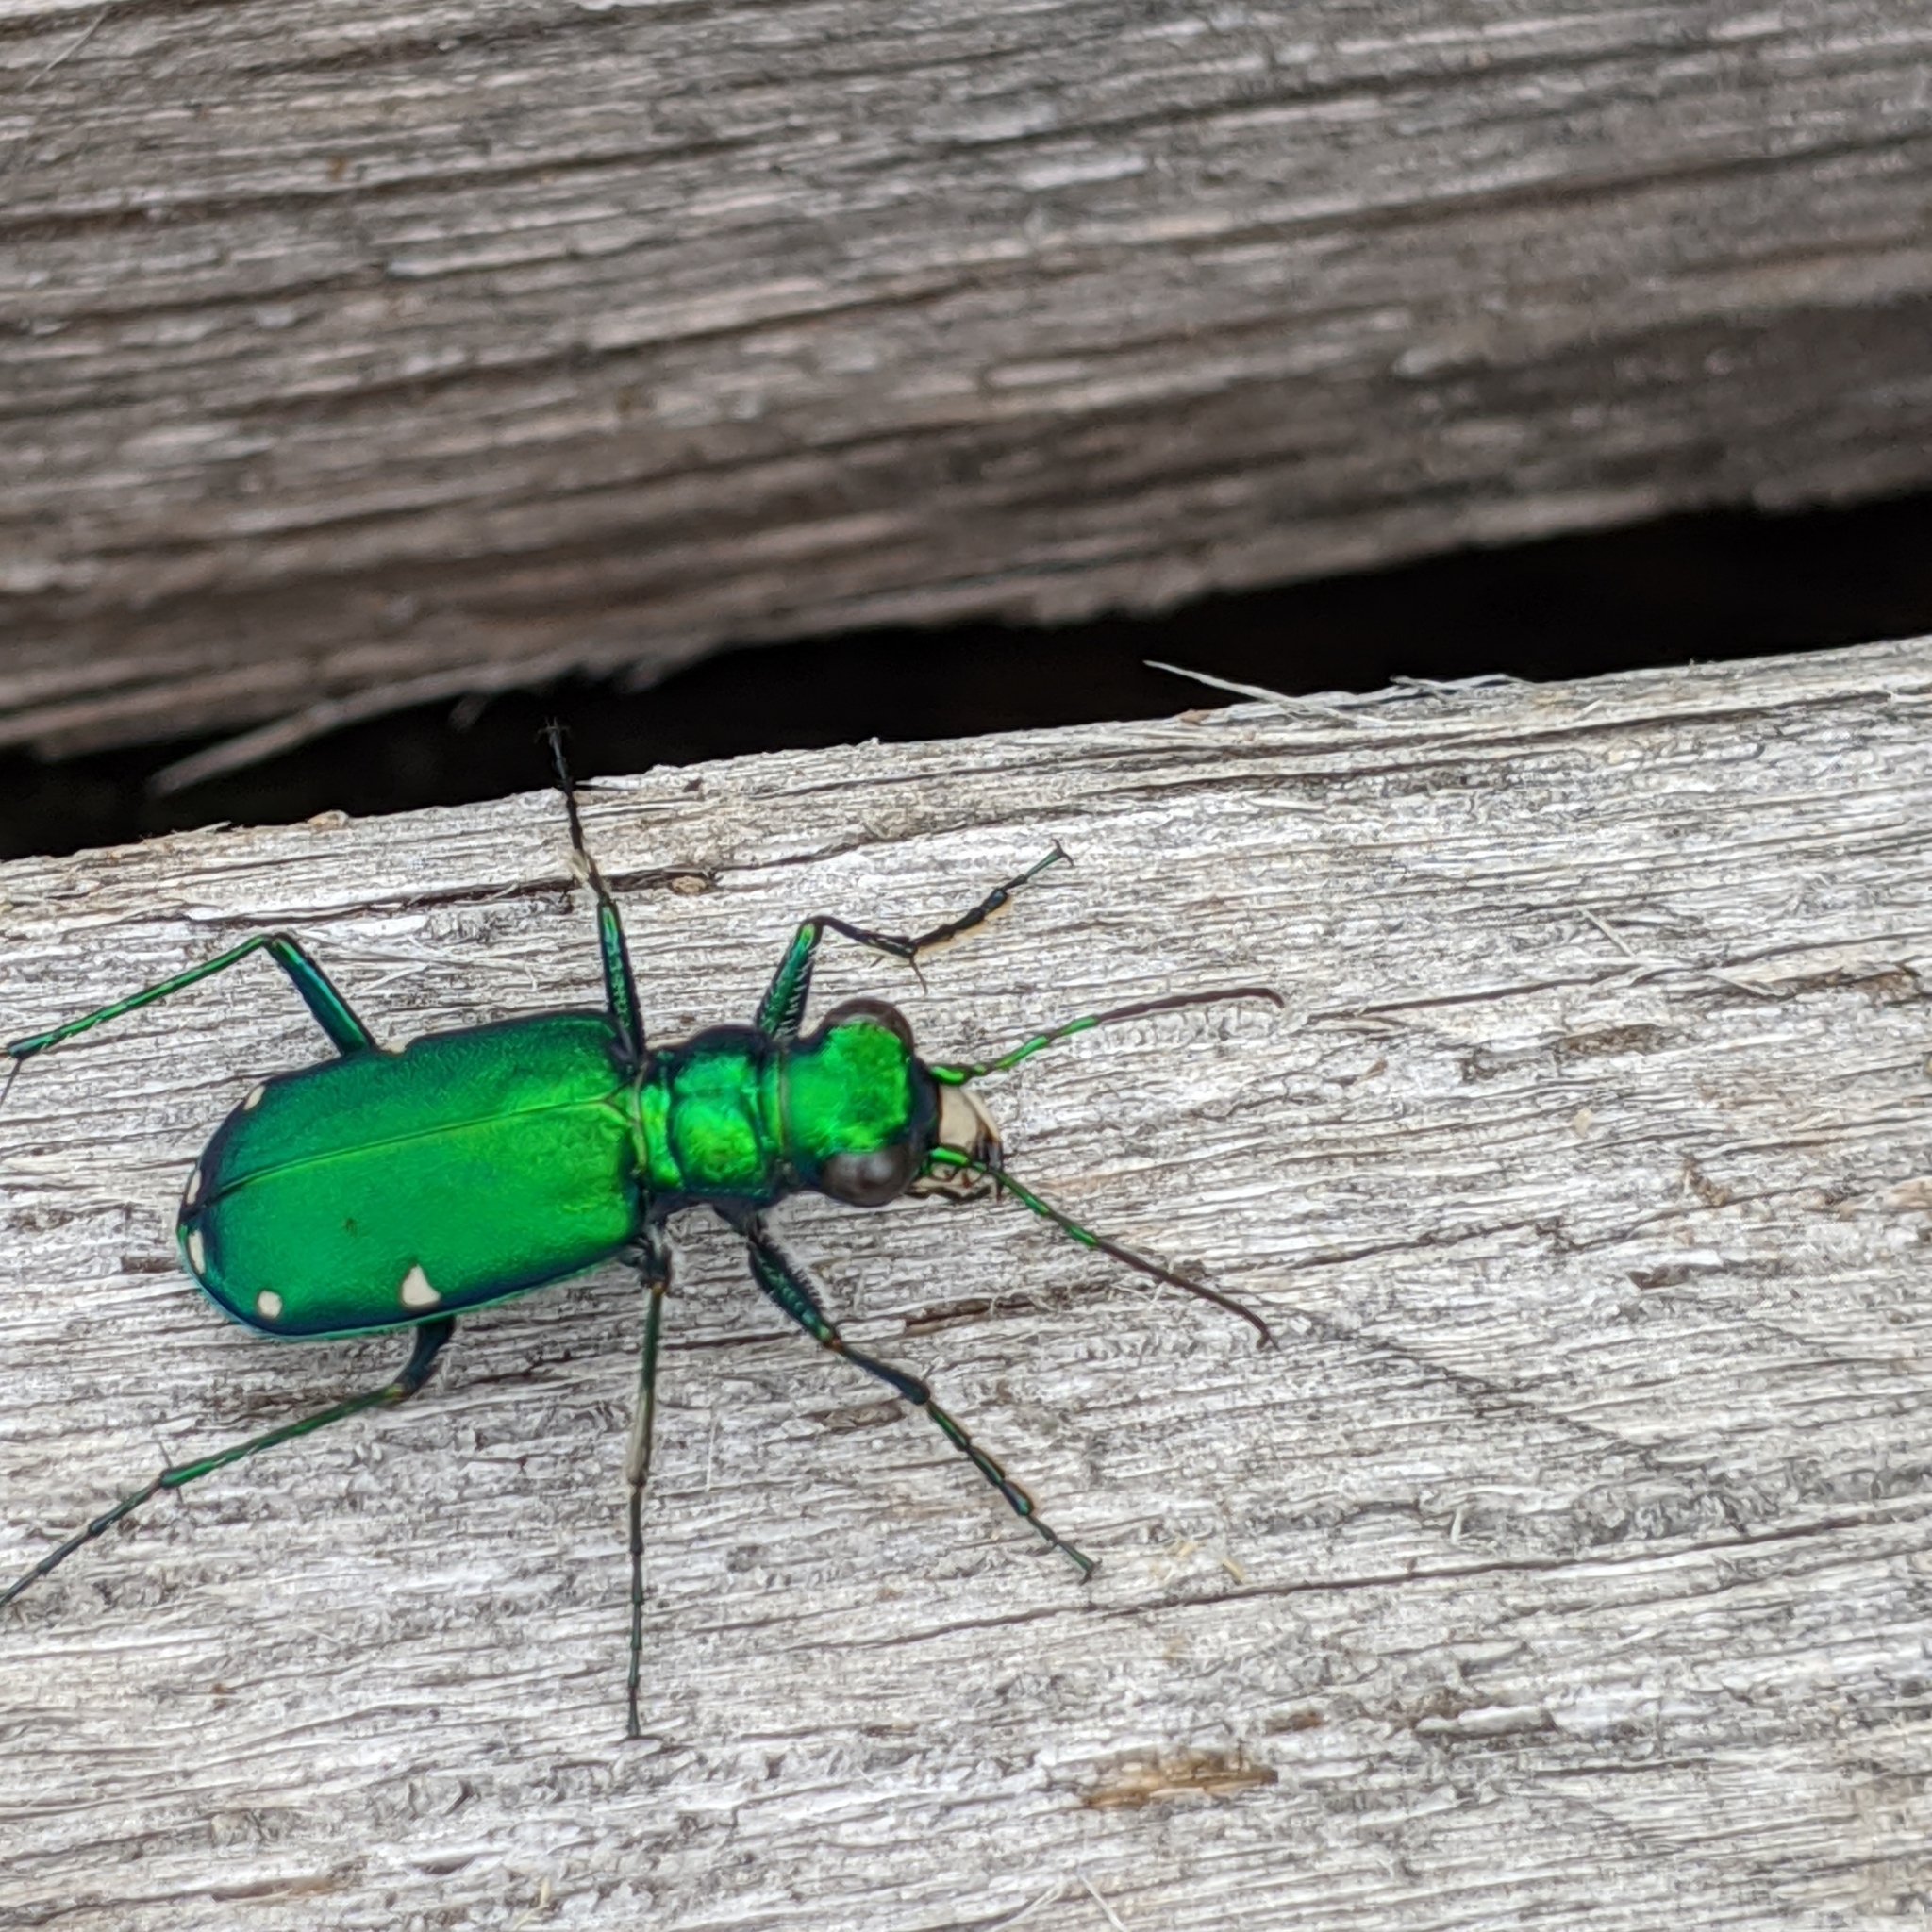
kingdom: Animalia
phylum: Arthropoda
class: Insecta
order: Coleoptera
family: Carabidae
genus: Cicindela
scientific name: Cicindela sexguttata
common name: Six-spotted tiger beetle
